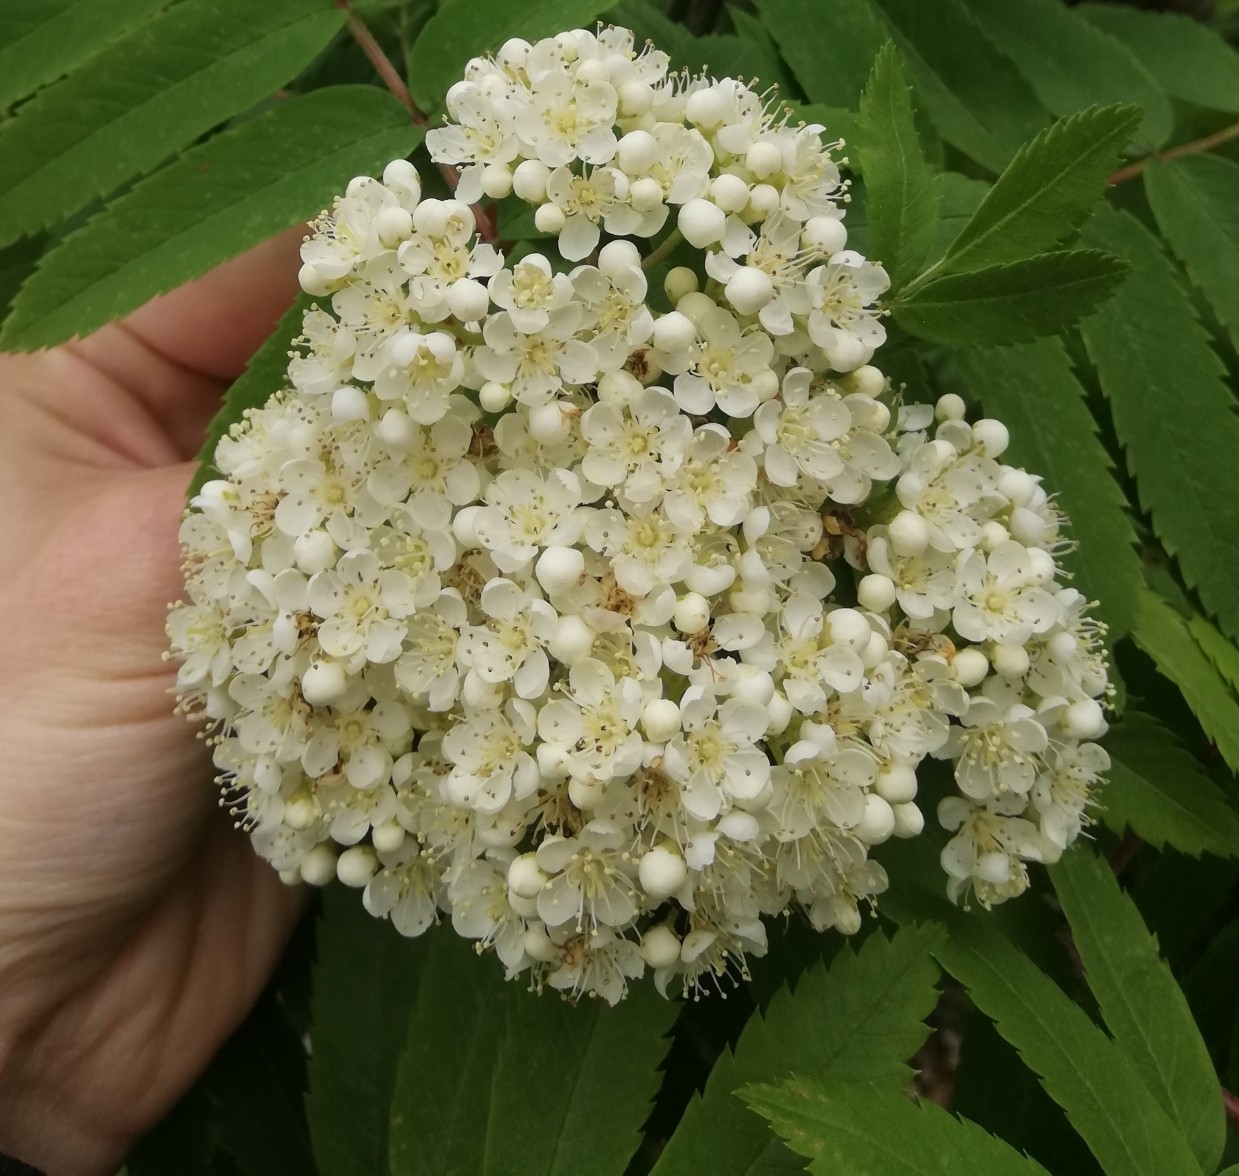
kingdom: Plantae
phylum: Tracheophyta
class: Magnoliopsida
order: Rosales
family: Rosaceae
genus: Sorbus
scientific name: Sorbus aucuparia
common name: Rowan
